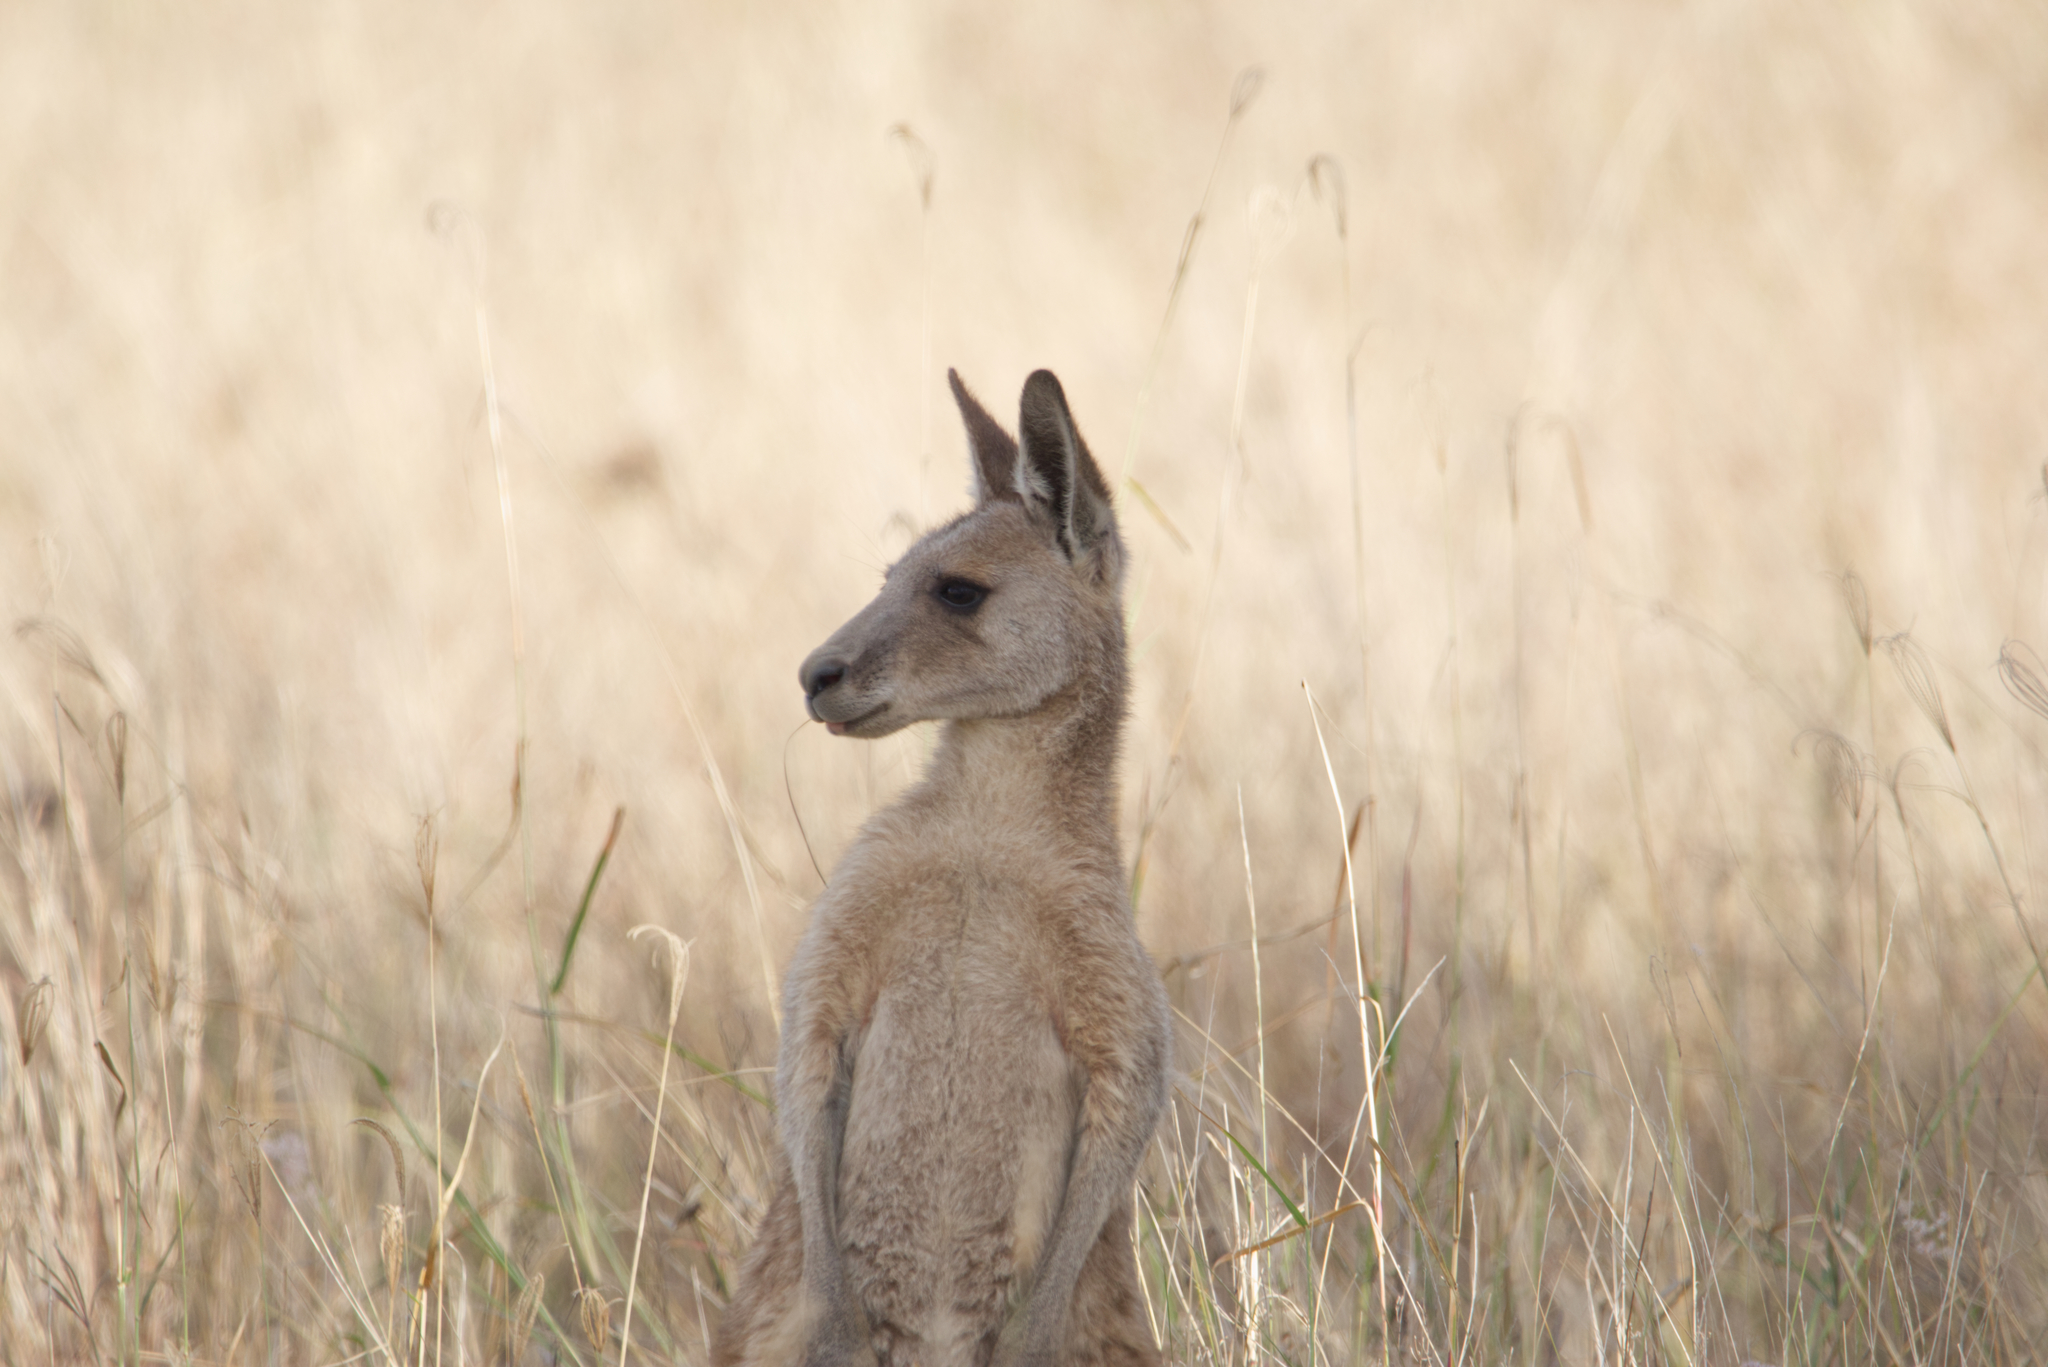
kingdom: Animalia
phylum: Chordata
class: Mammalia
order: Diprotodontia
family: Macropodidae
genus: Macropus
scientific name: Macropus giganteus
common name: Eastern grey kangaroo
